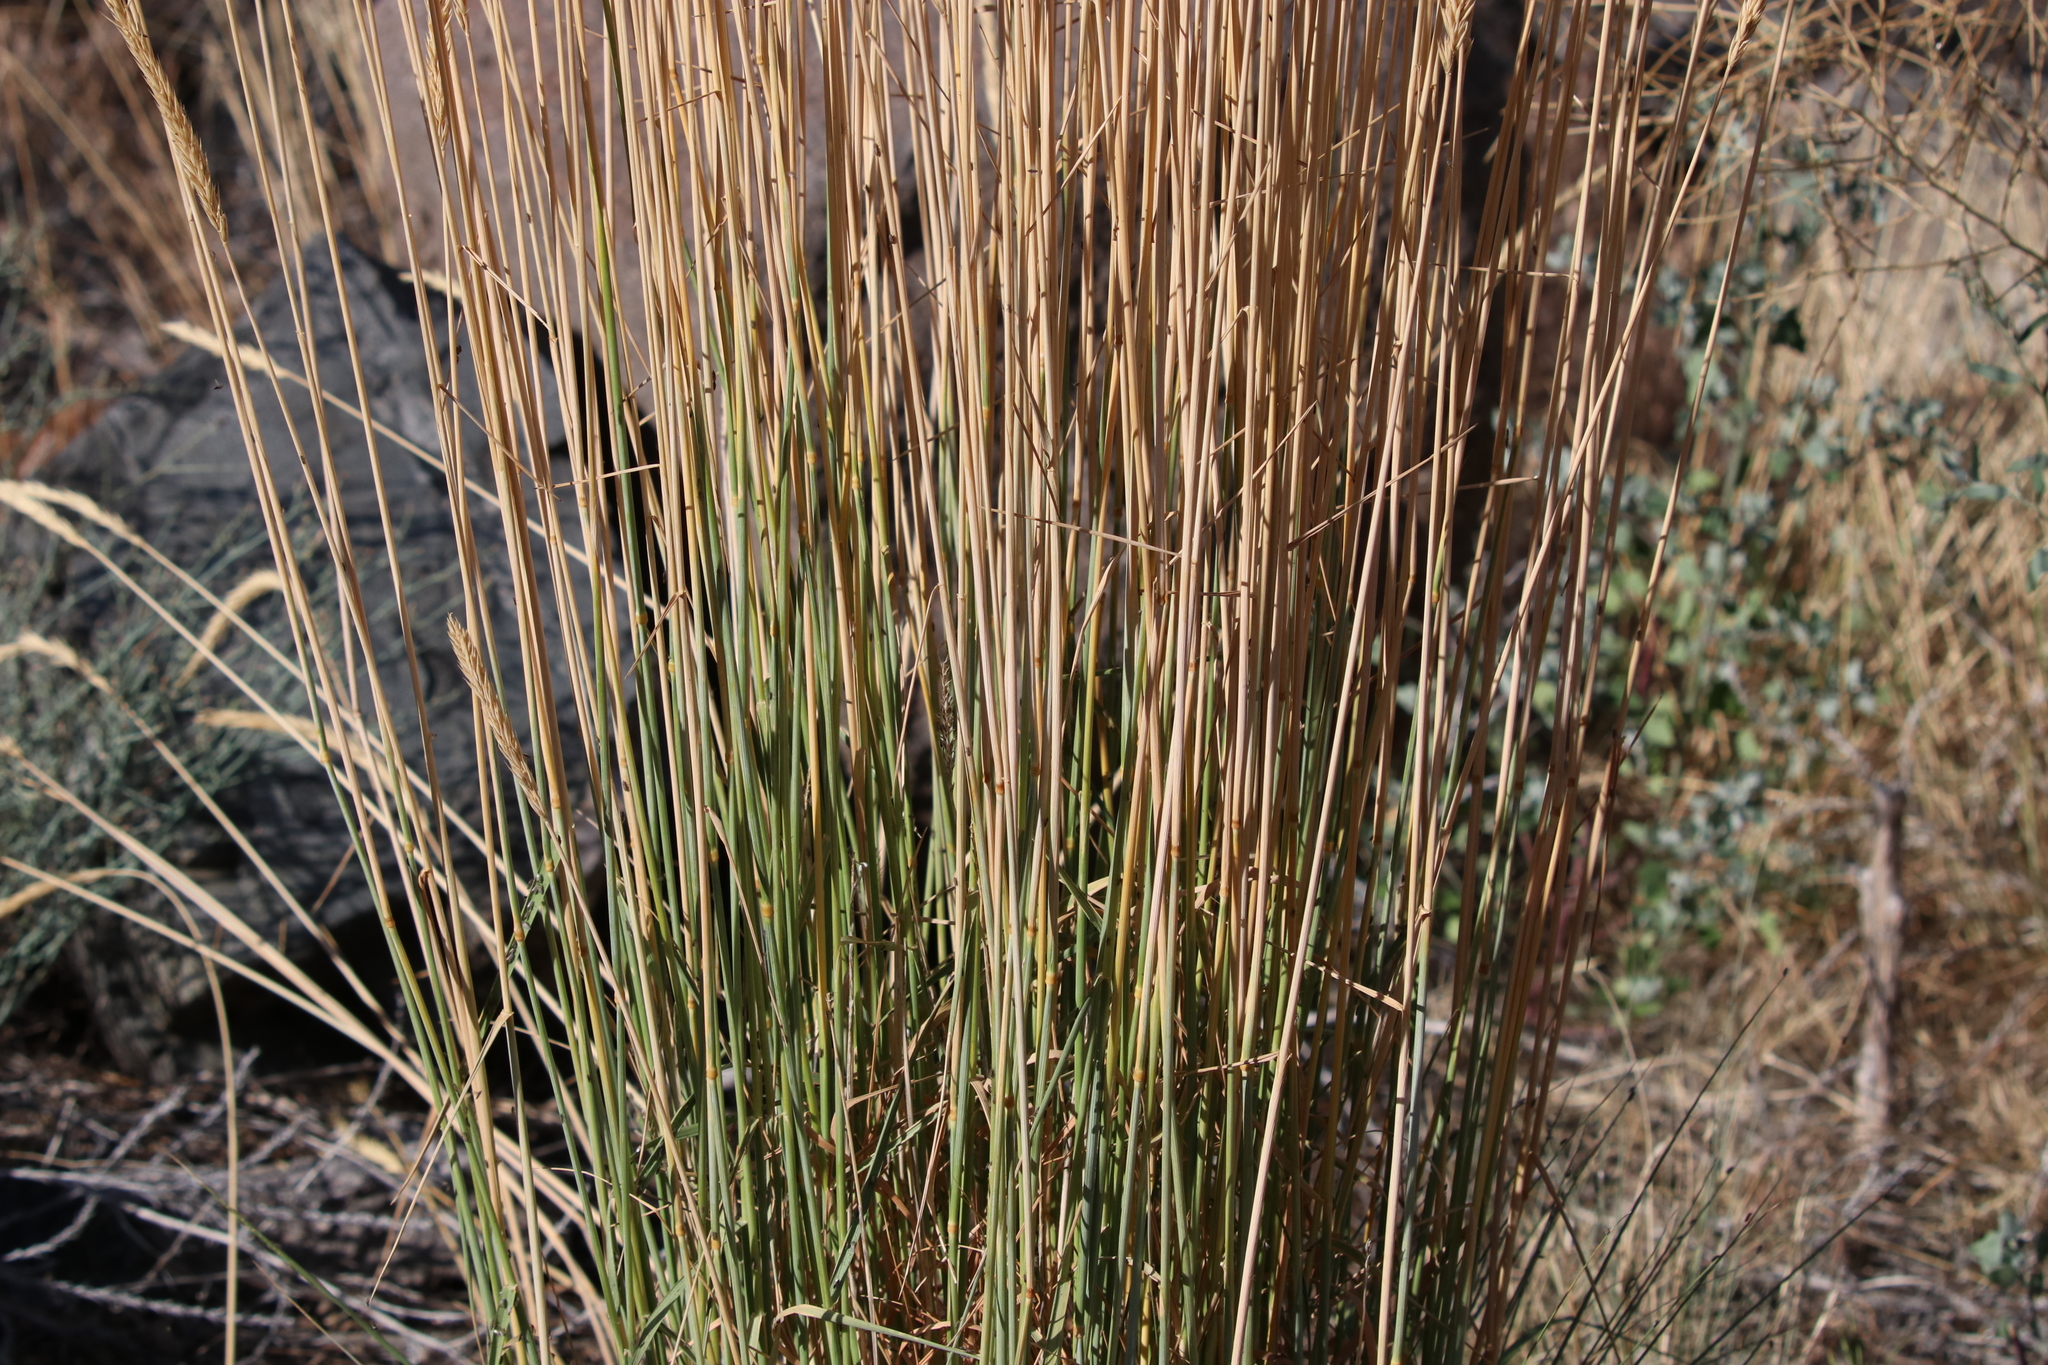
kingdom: Plantae
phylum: Tracheophyta
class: Liliopsida
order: Poales
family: Poaceae
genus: Psathyrostachys
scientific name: Psathyrostachys juncea
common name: Russian wildrye
